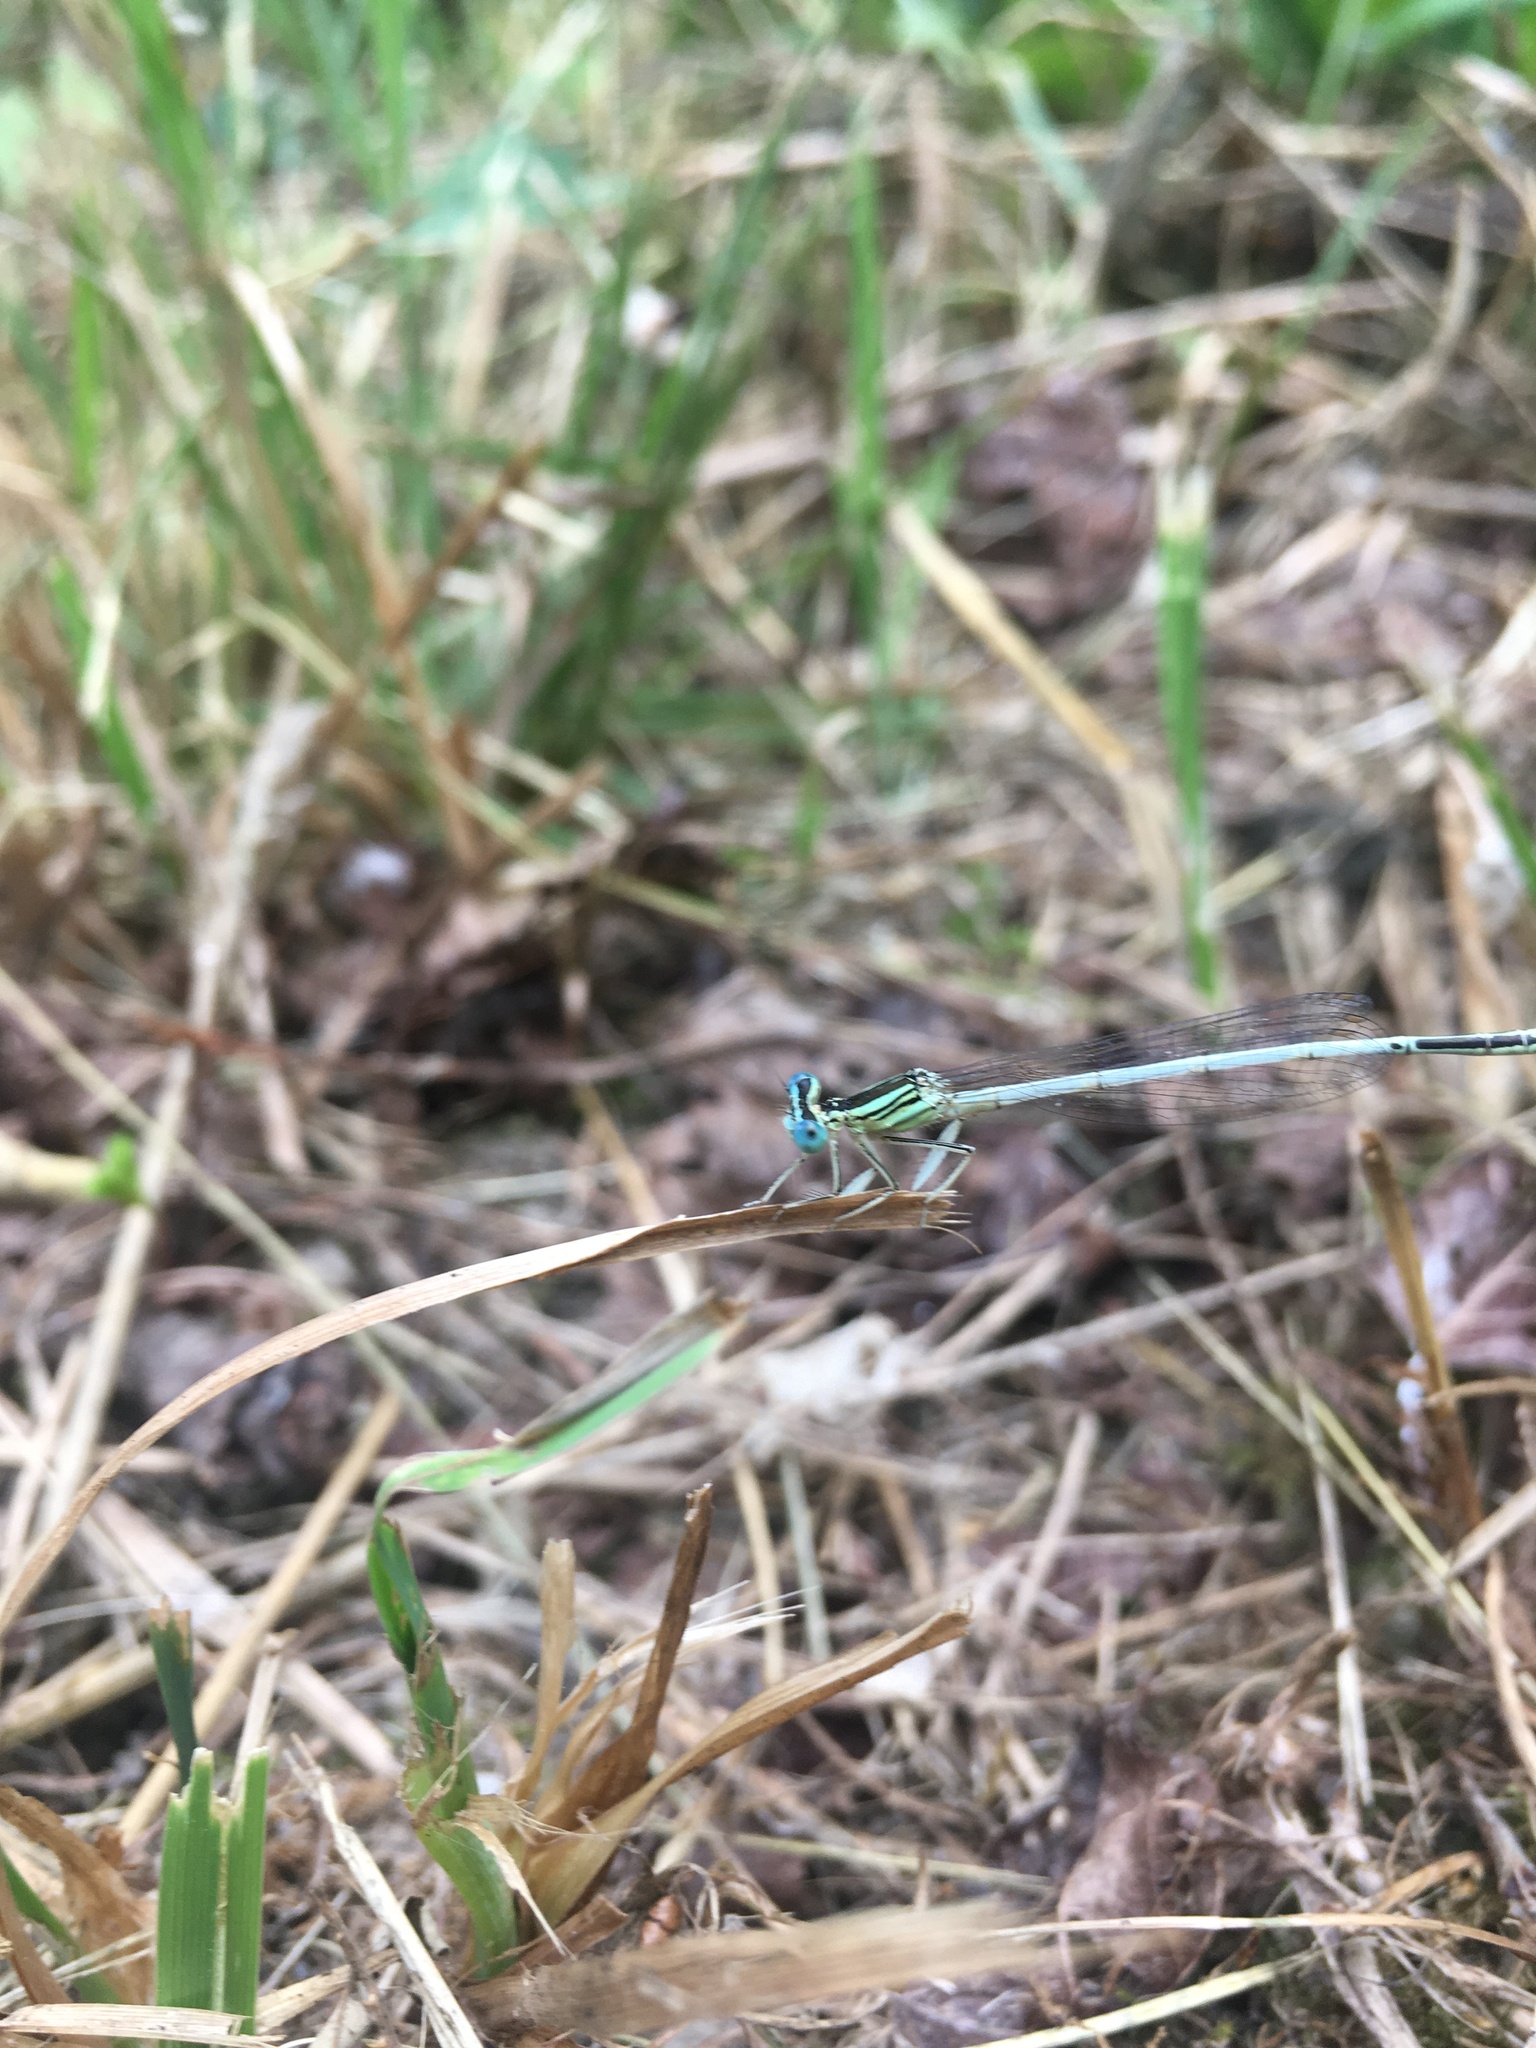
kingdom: Animalia
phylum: Arthropoda
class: Insecta
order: Odonata
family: Platycnemididae
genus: Platycnemis
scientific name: Platycnemis latipes
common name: White featherleg
